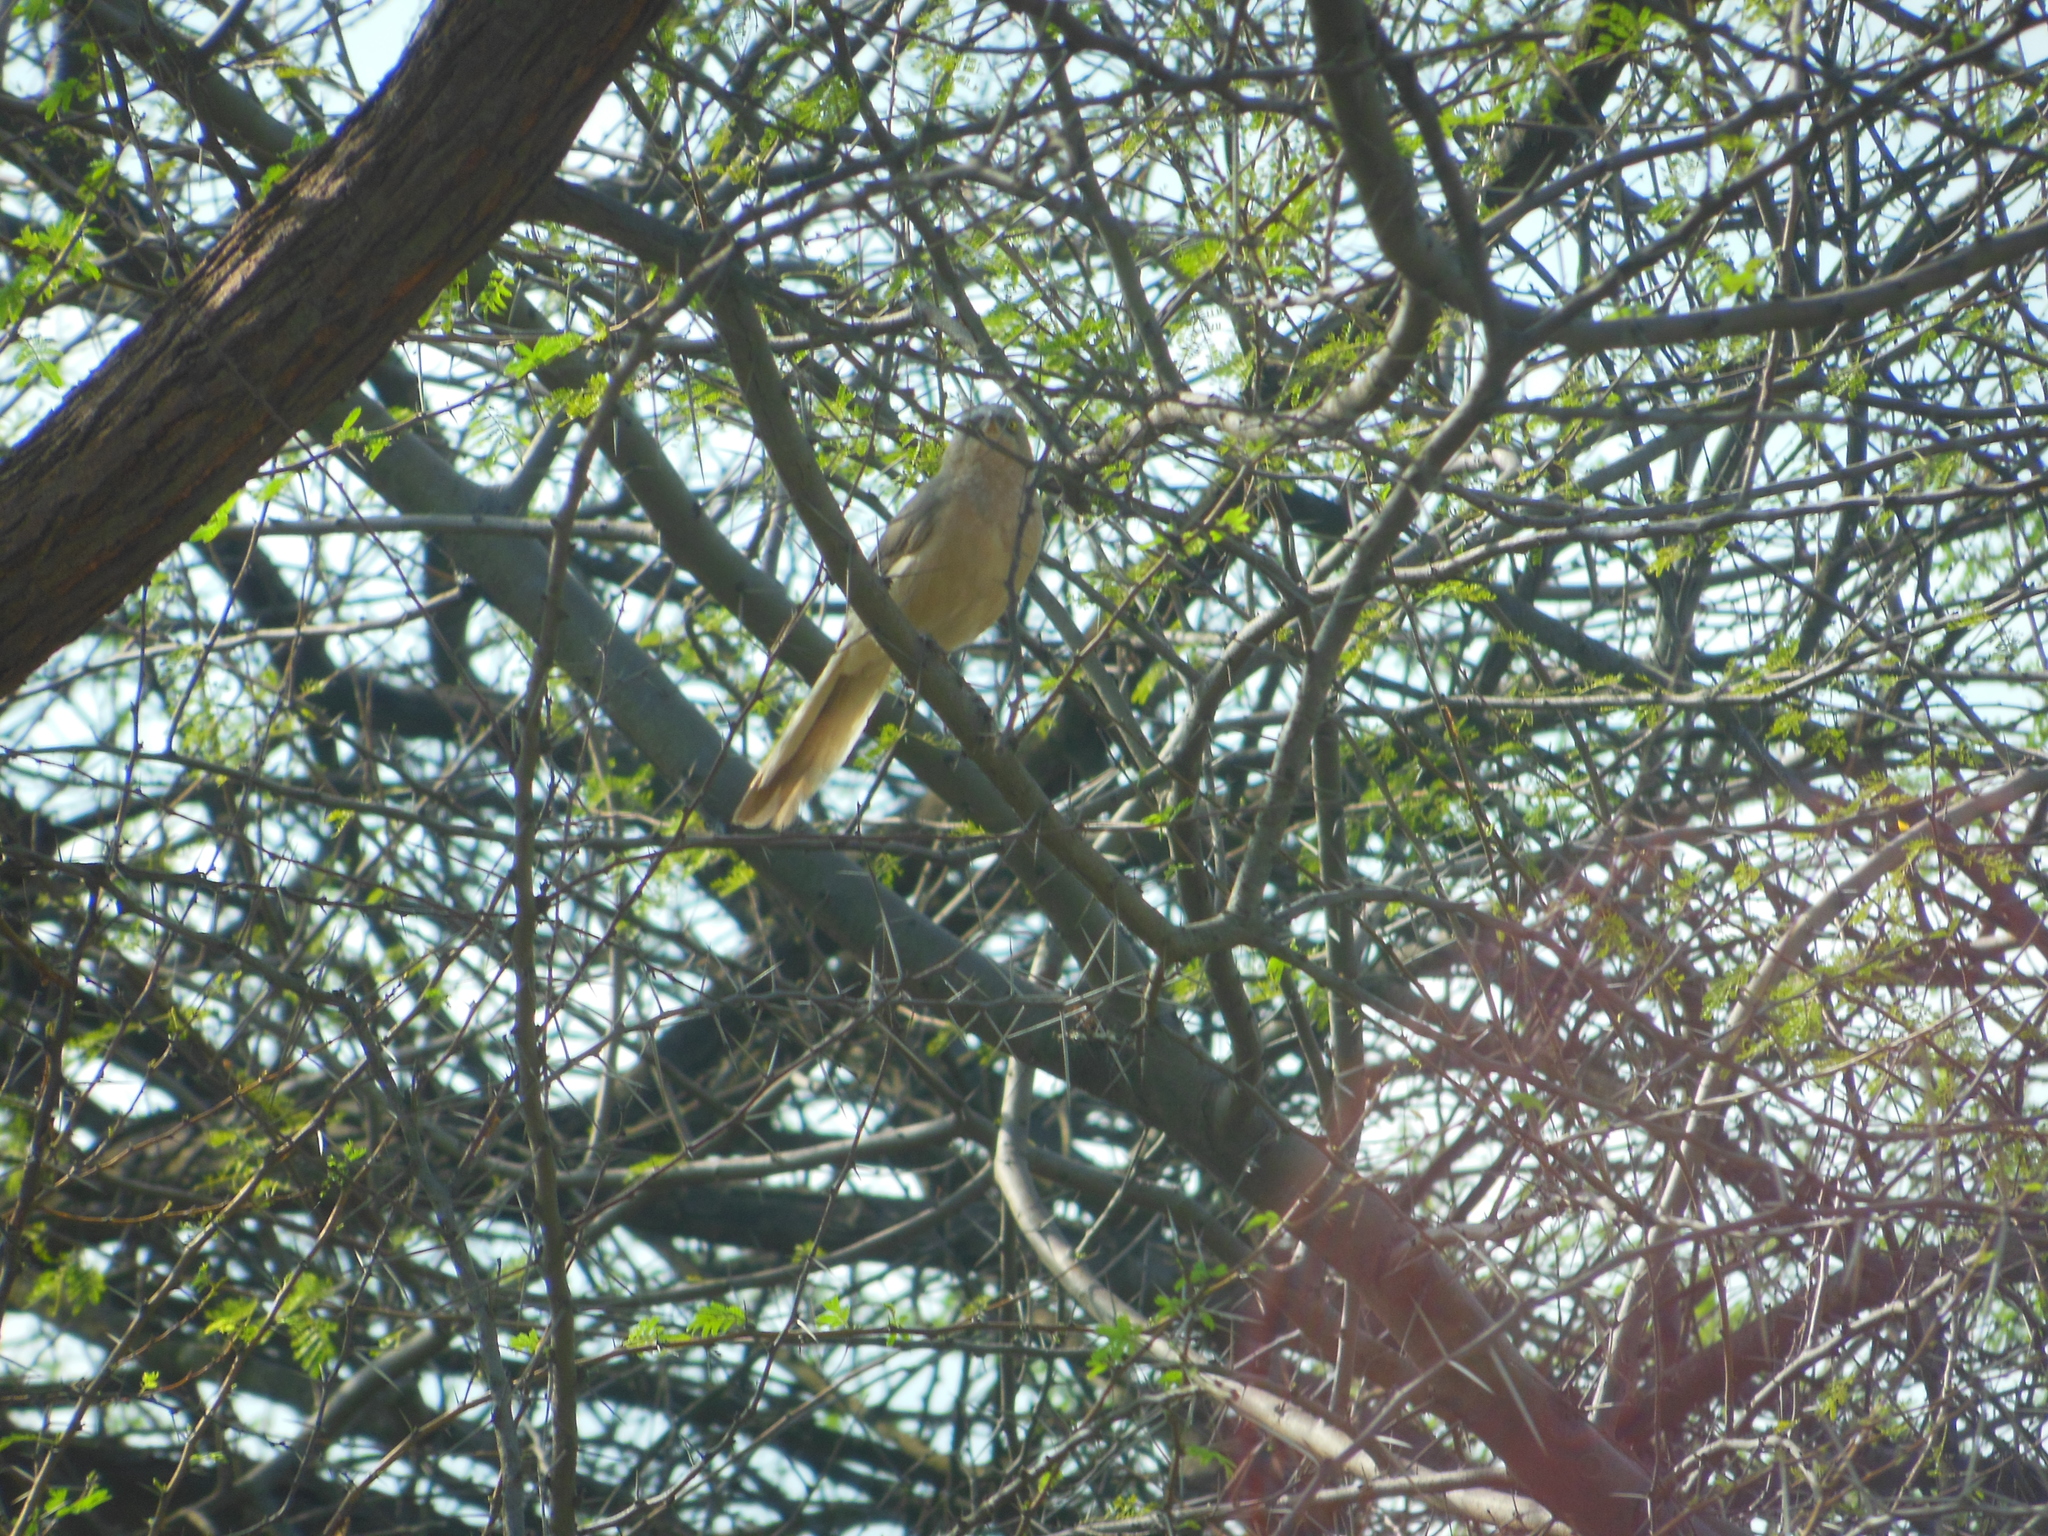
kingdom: Animalia
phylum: Chordata
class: Aves
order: Passeriformes
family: Leiothrichidae
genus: Turdoides
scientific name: Turdoides malcolmi
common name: Large grey babbler
